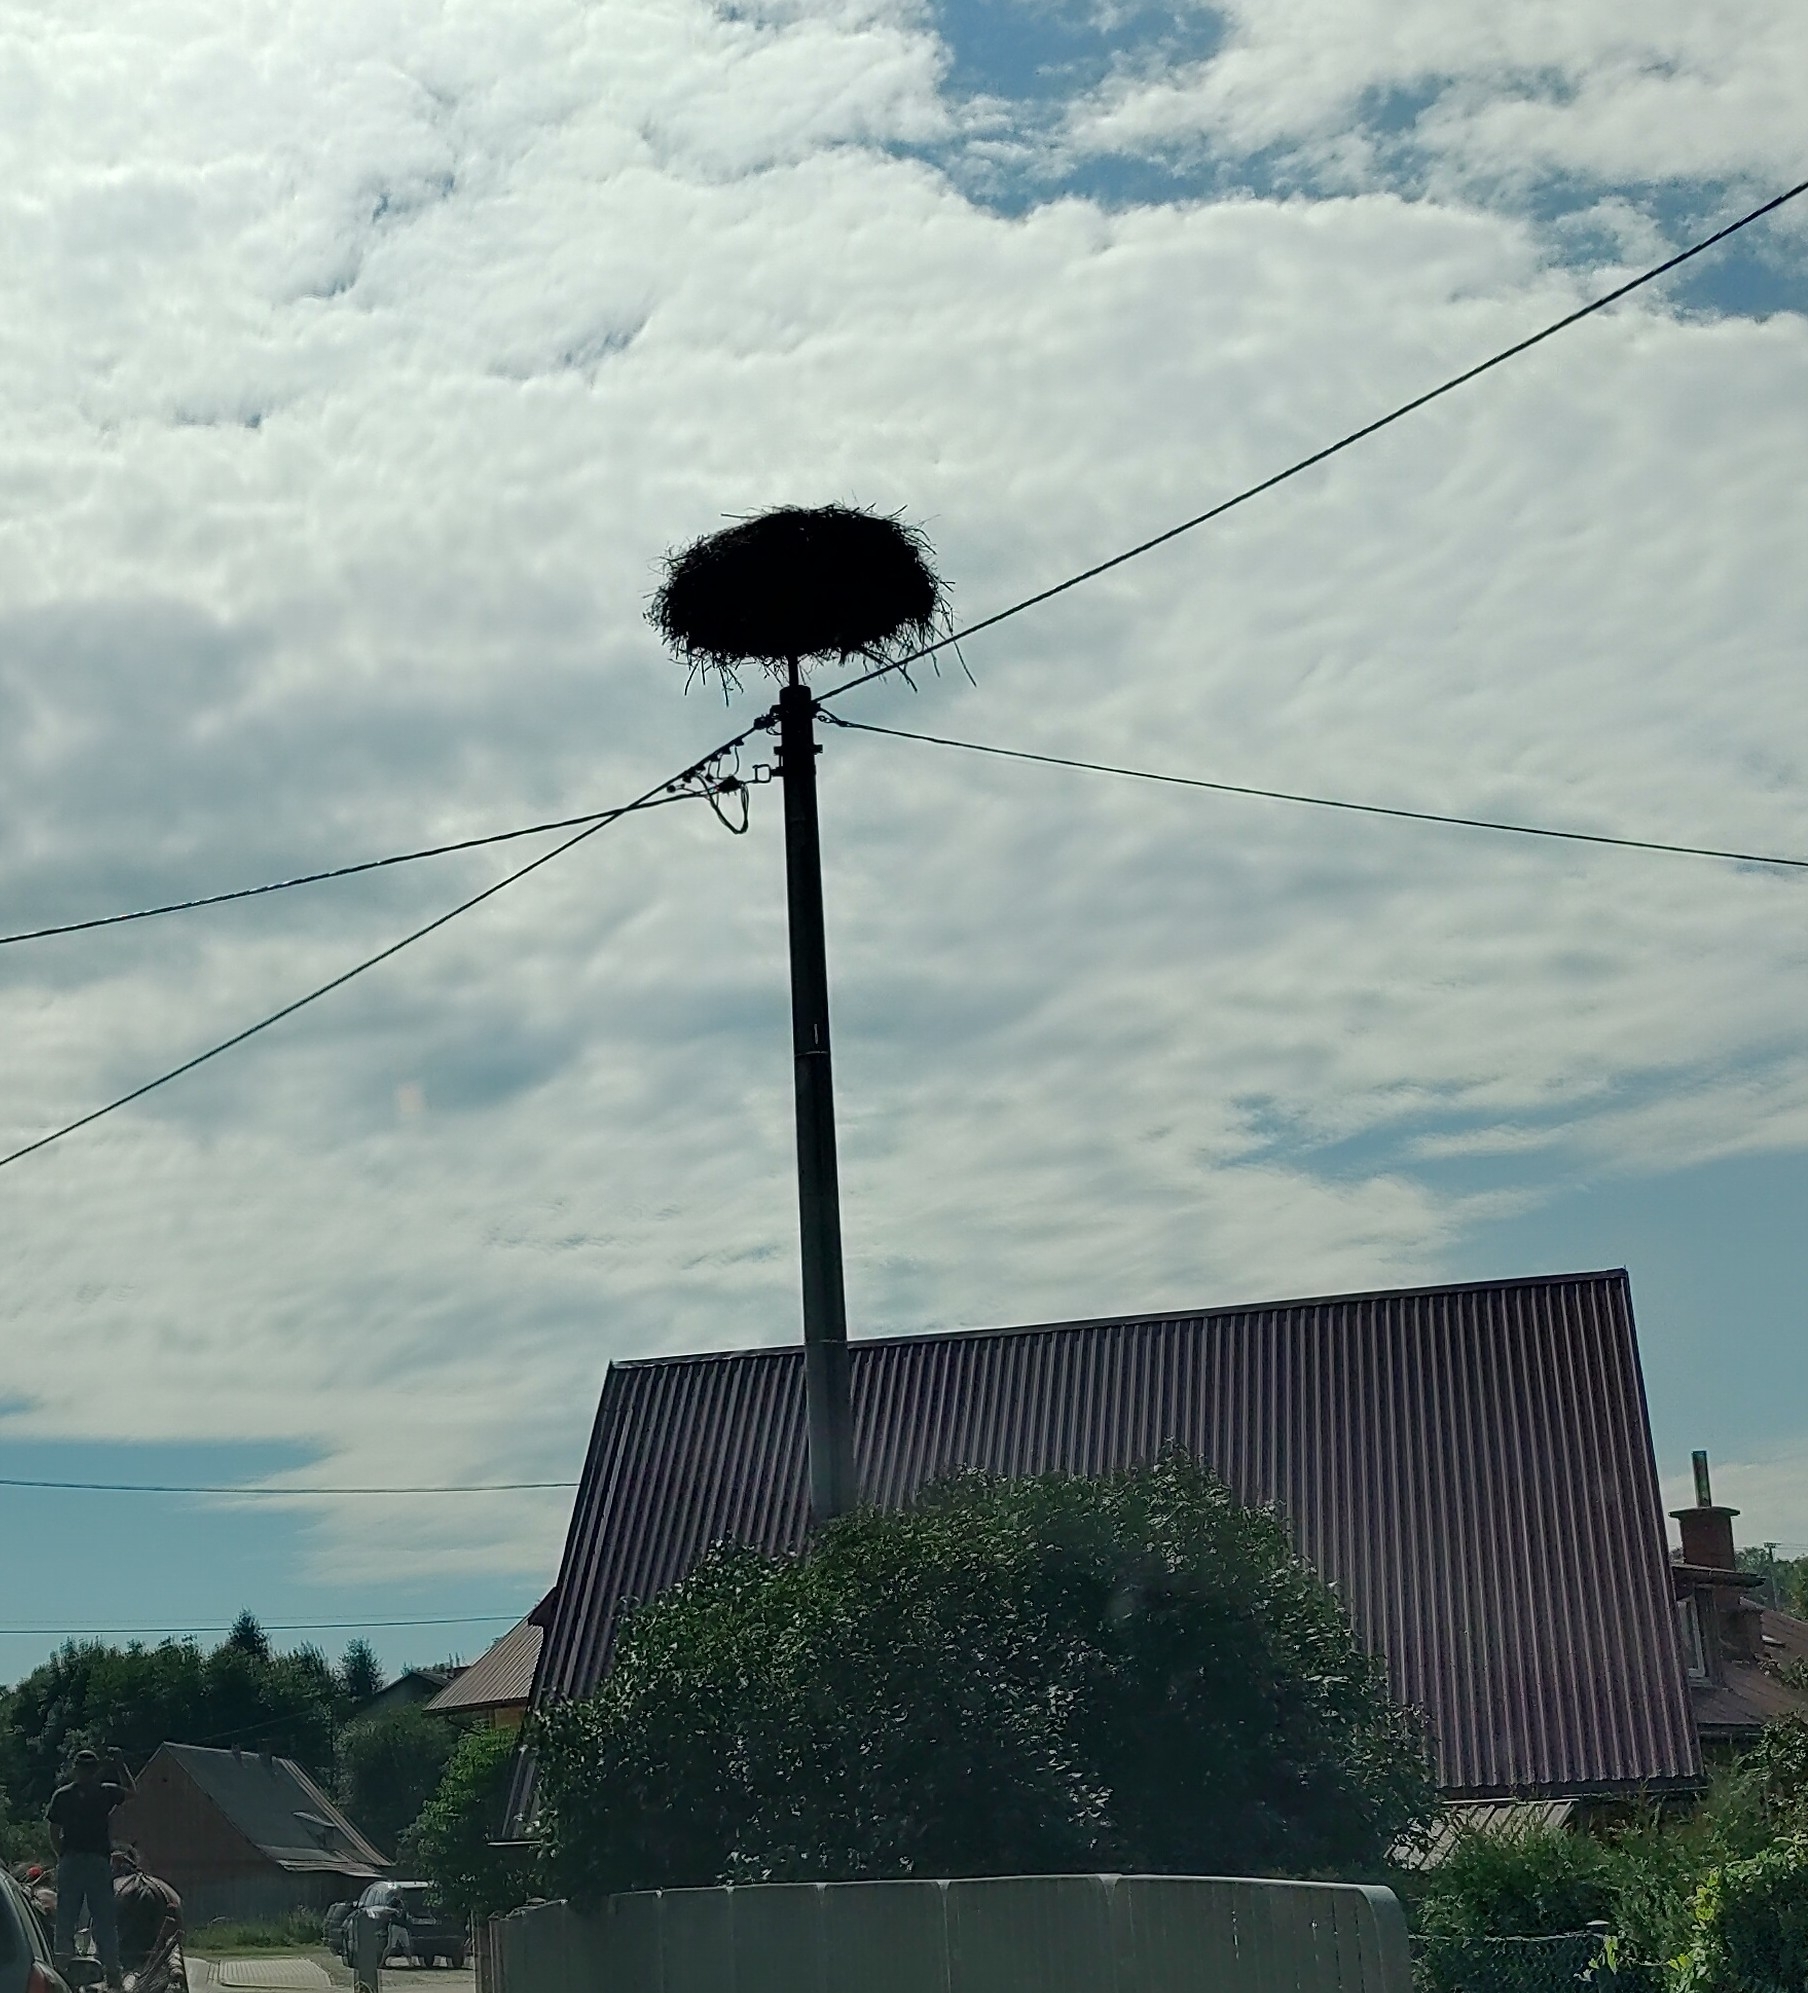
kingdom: Animalia
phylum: Chordata
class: Aves
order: Ciconiiformes
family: Ciconiidae
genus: Ciconia
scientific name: Ciconia ciconia
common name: White stork
